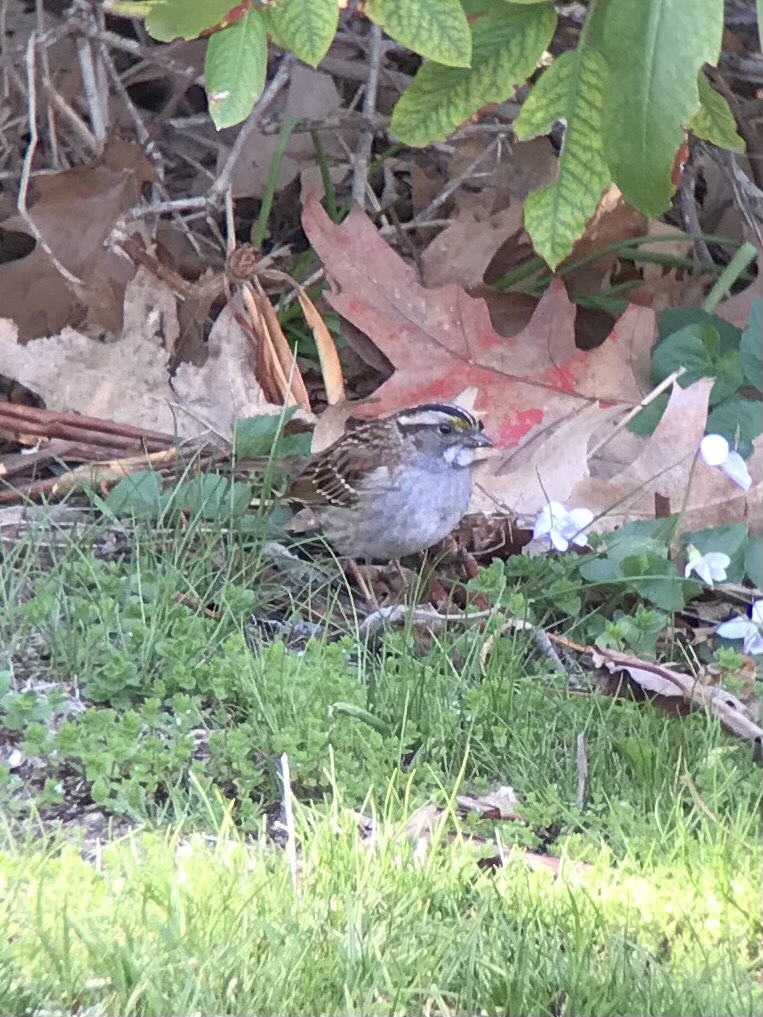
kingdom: Animalia
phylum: Chordata
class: Aves
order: Passeriformes
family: Passerellidae
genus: Zonotrichia
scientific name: Zonotrichia albicollis
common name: White-throated sparrow
